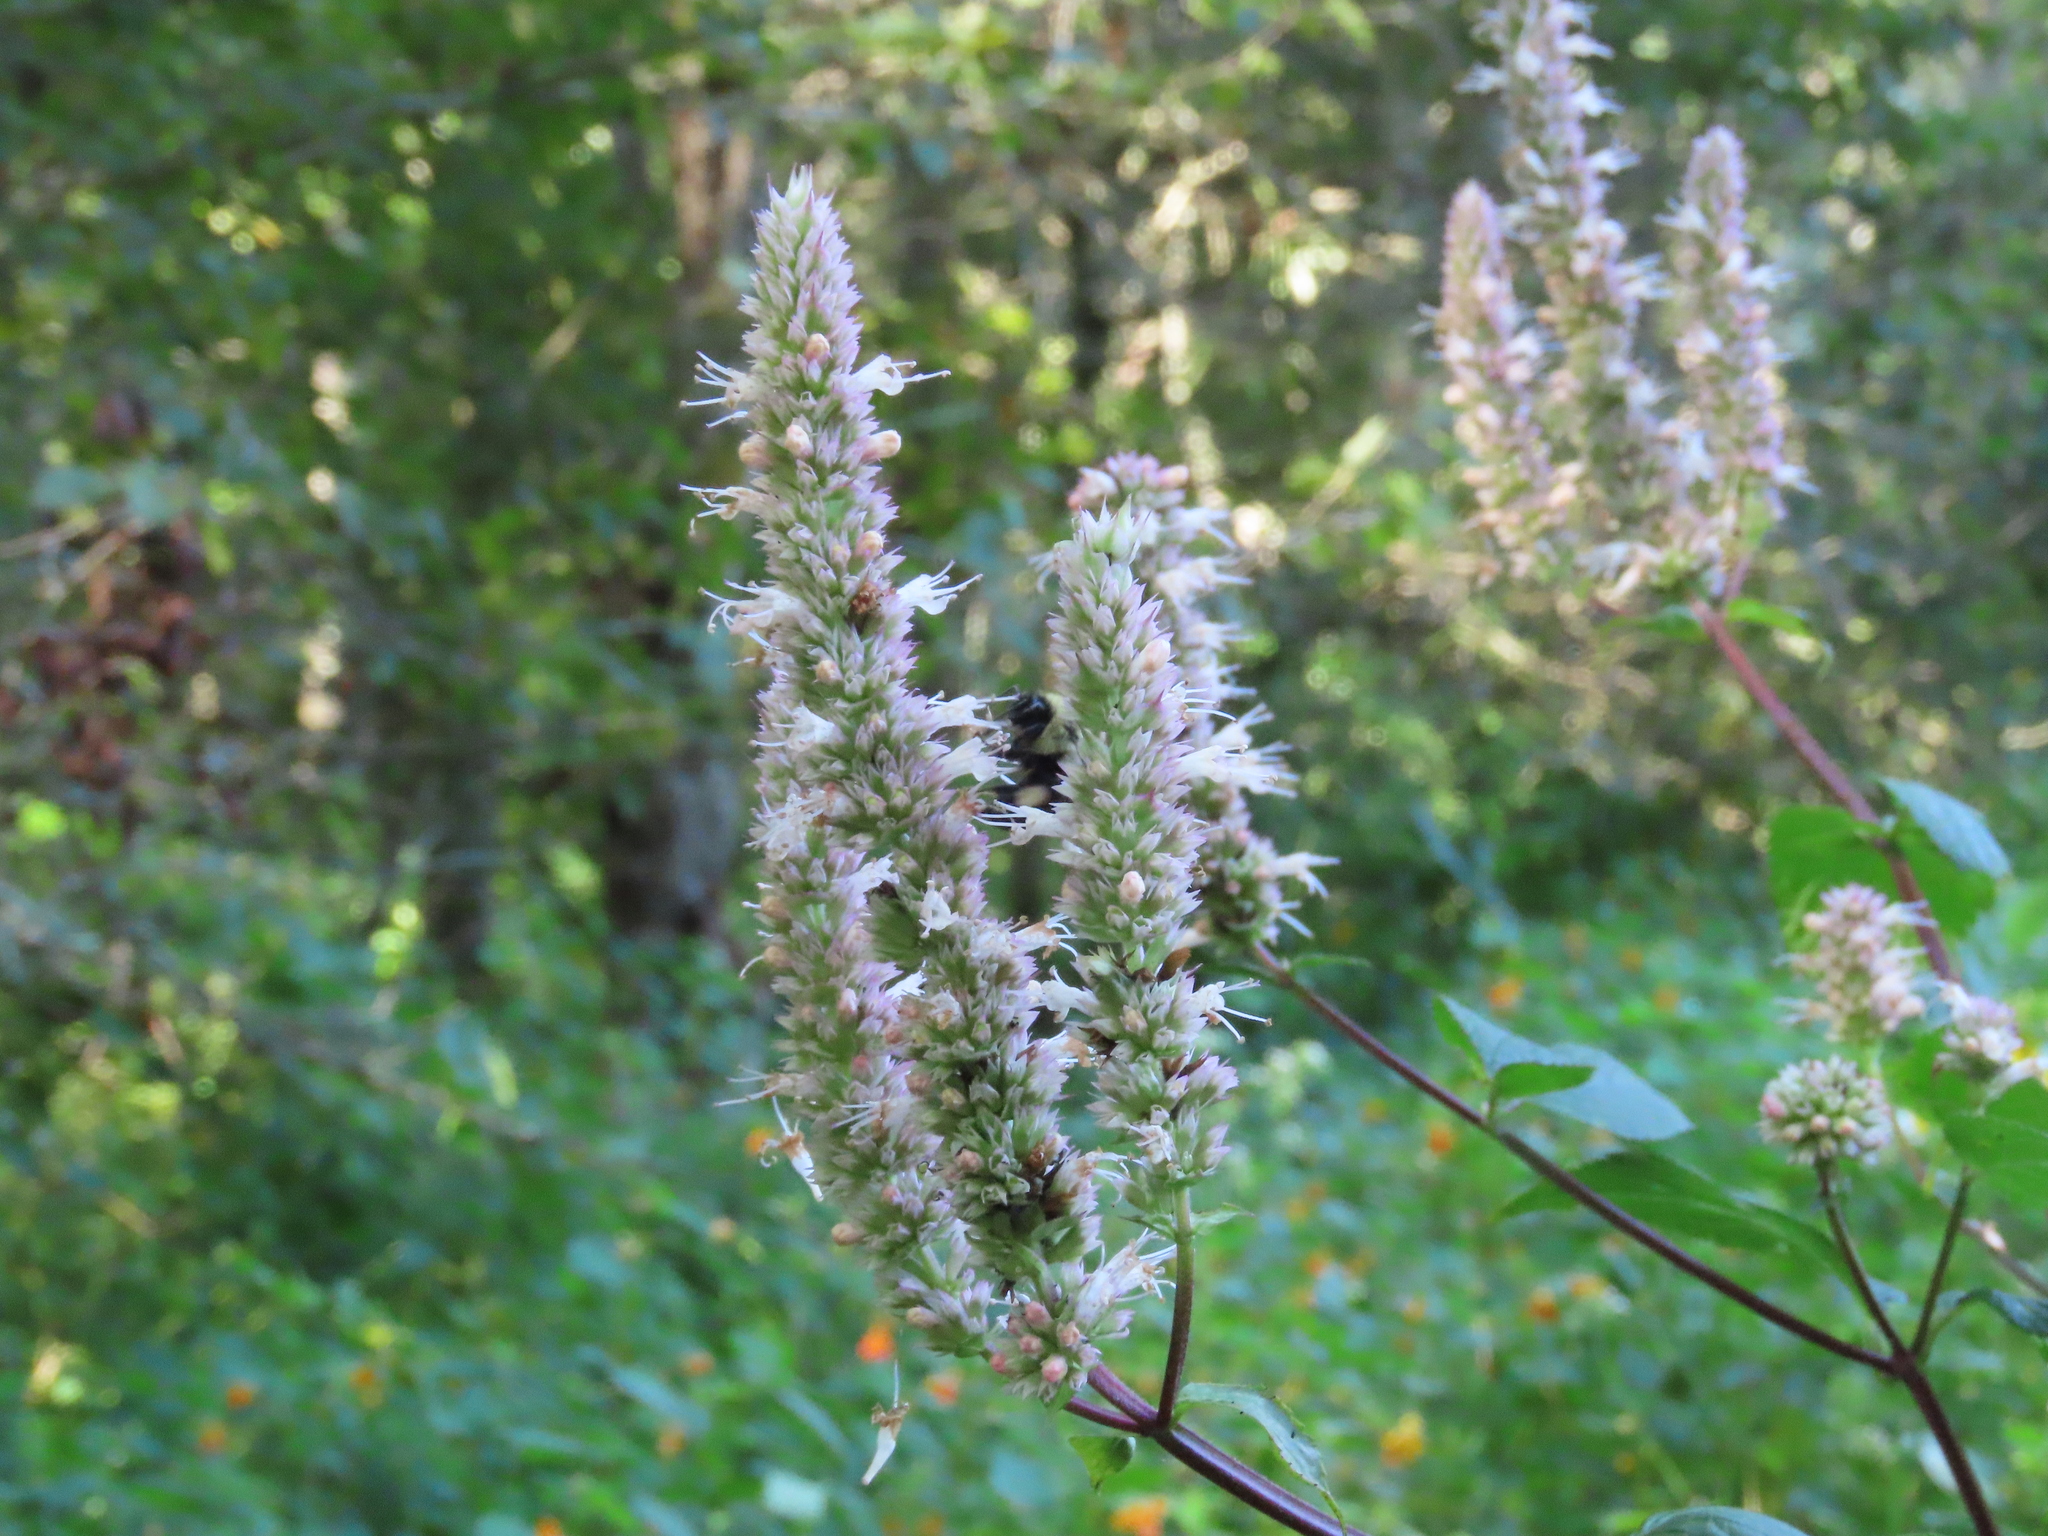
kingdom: Plantae
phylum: Tracheophyta
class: Magnoliopsida
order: Lamiales
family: Lamiaceae
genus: Agastache
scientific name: Agastache scrophulariifolia
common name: Figwort giant hyssop
